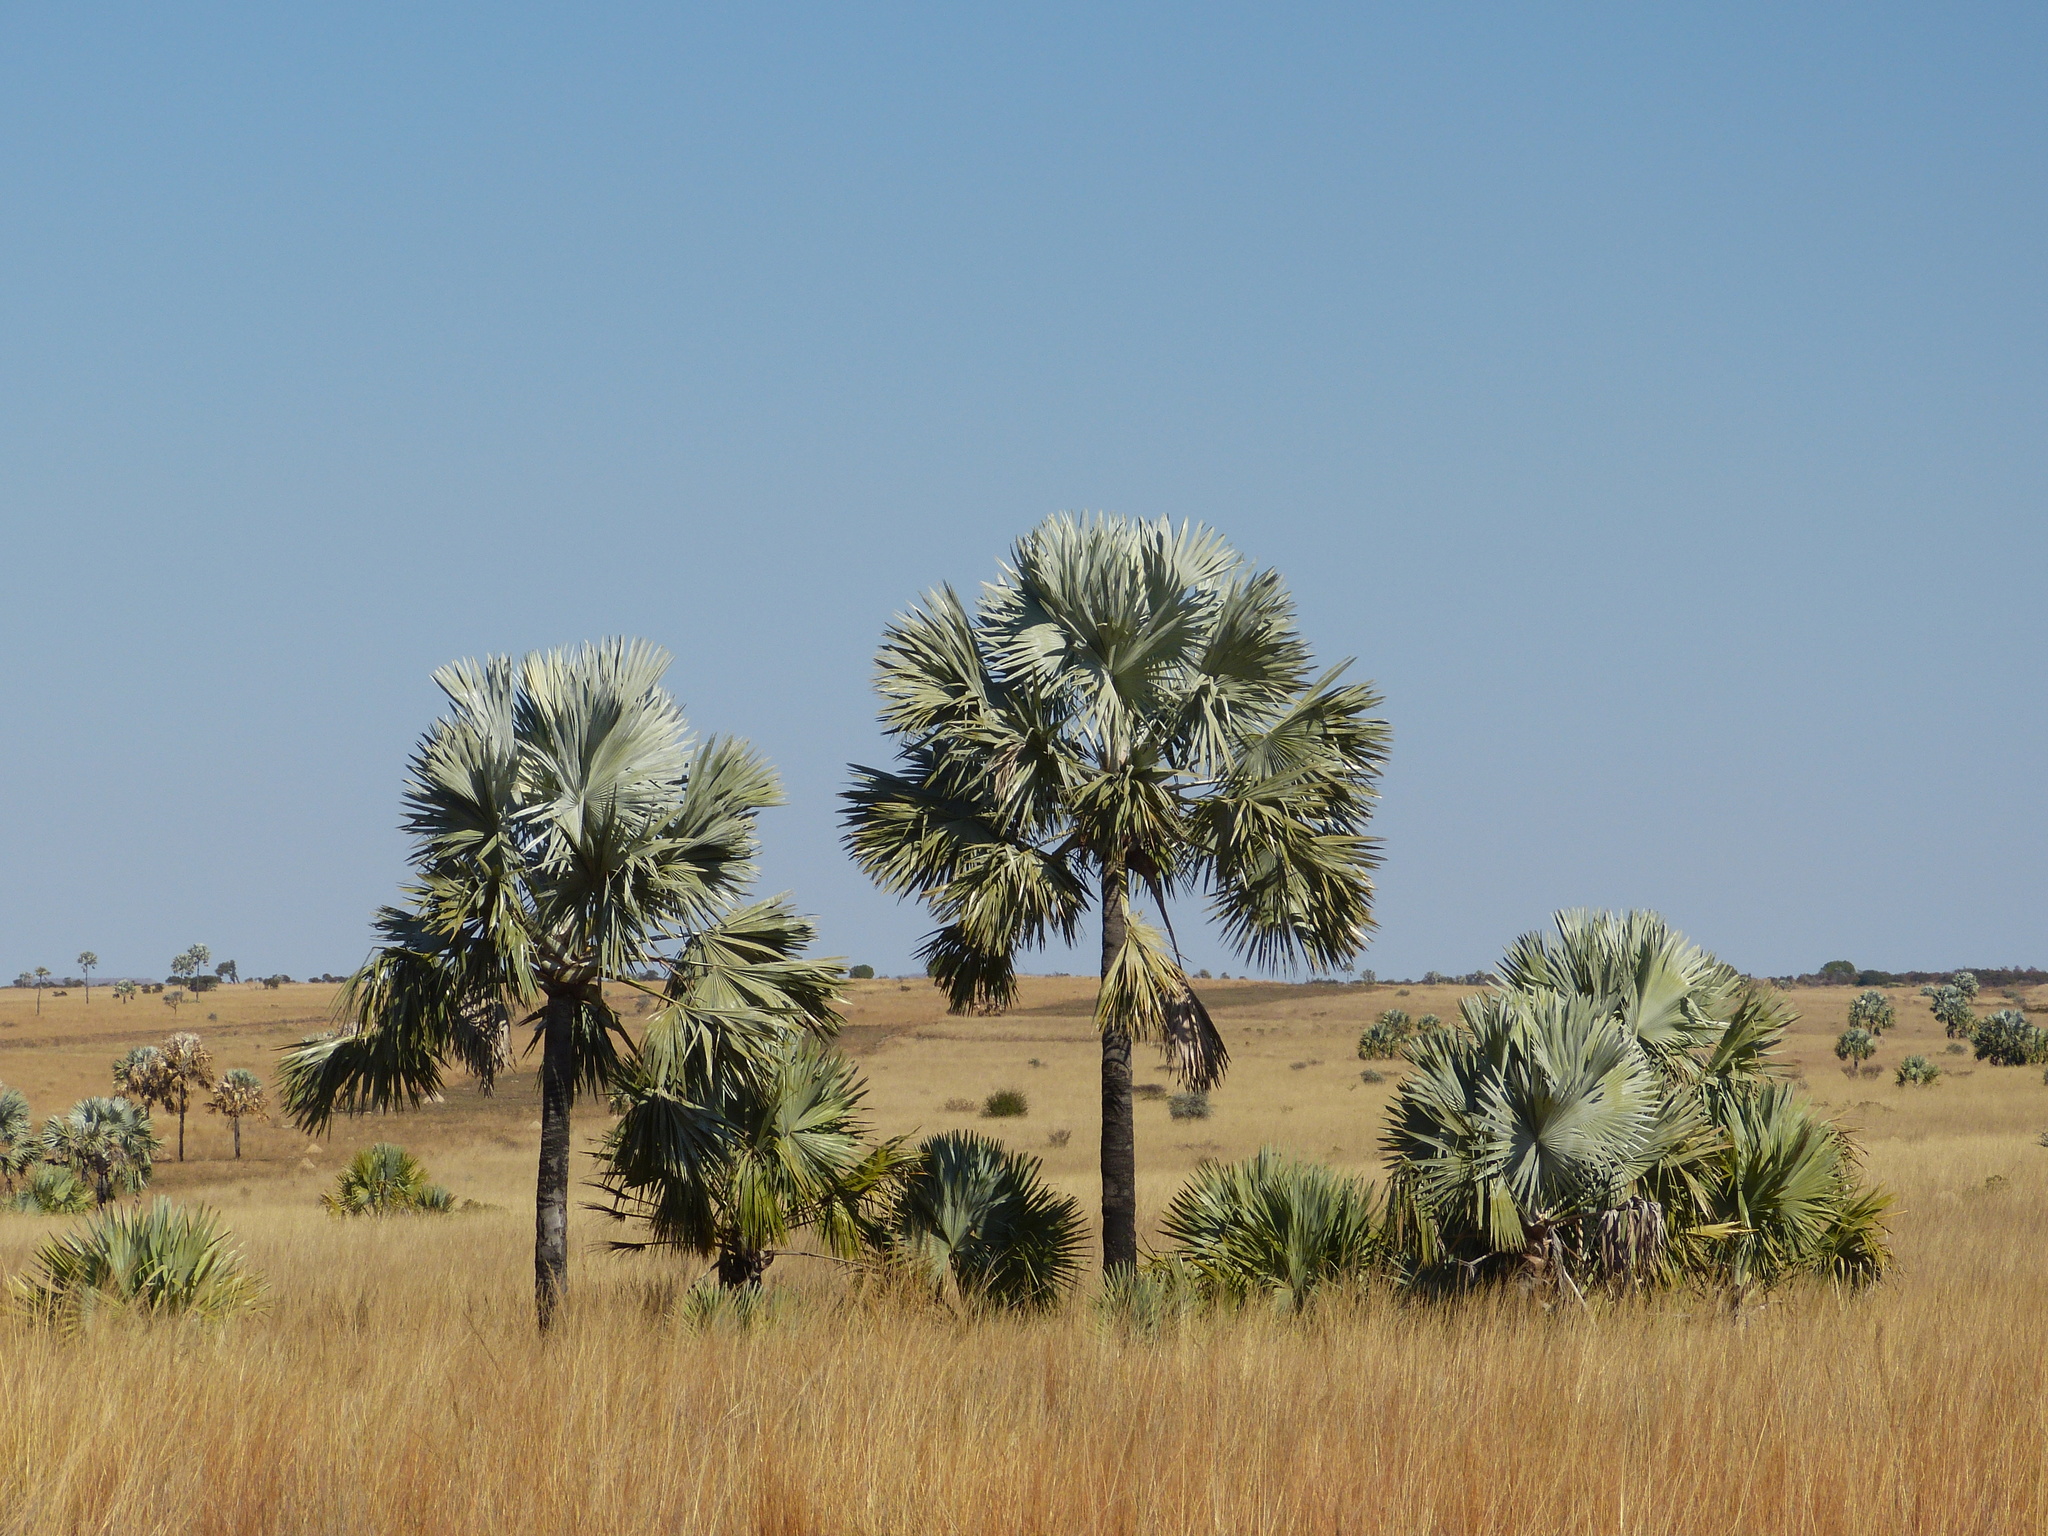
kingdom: Plantae
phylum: Tracheophyta
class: Liliopsida
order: Arecales
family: Arecaceae
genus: Bismarckia
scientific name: Bismarckia nobilis
